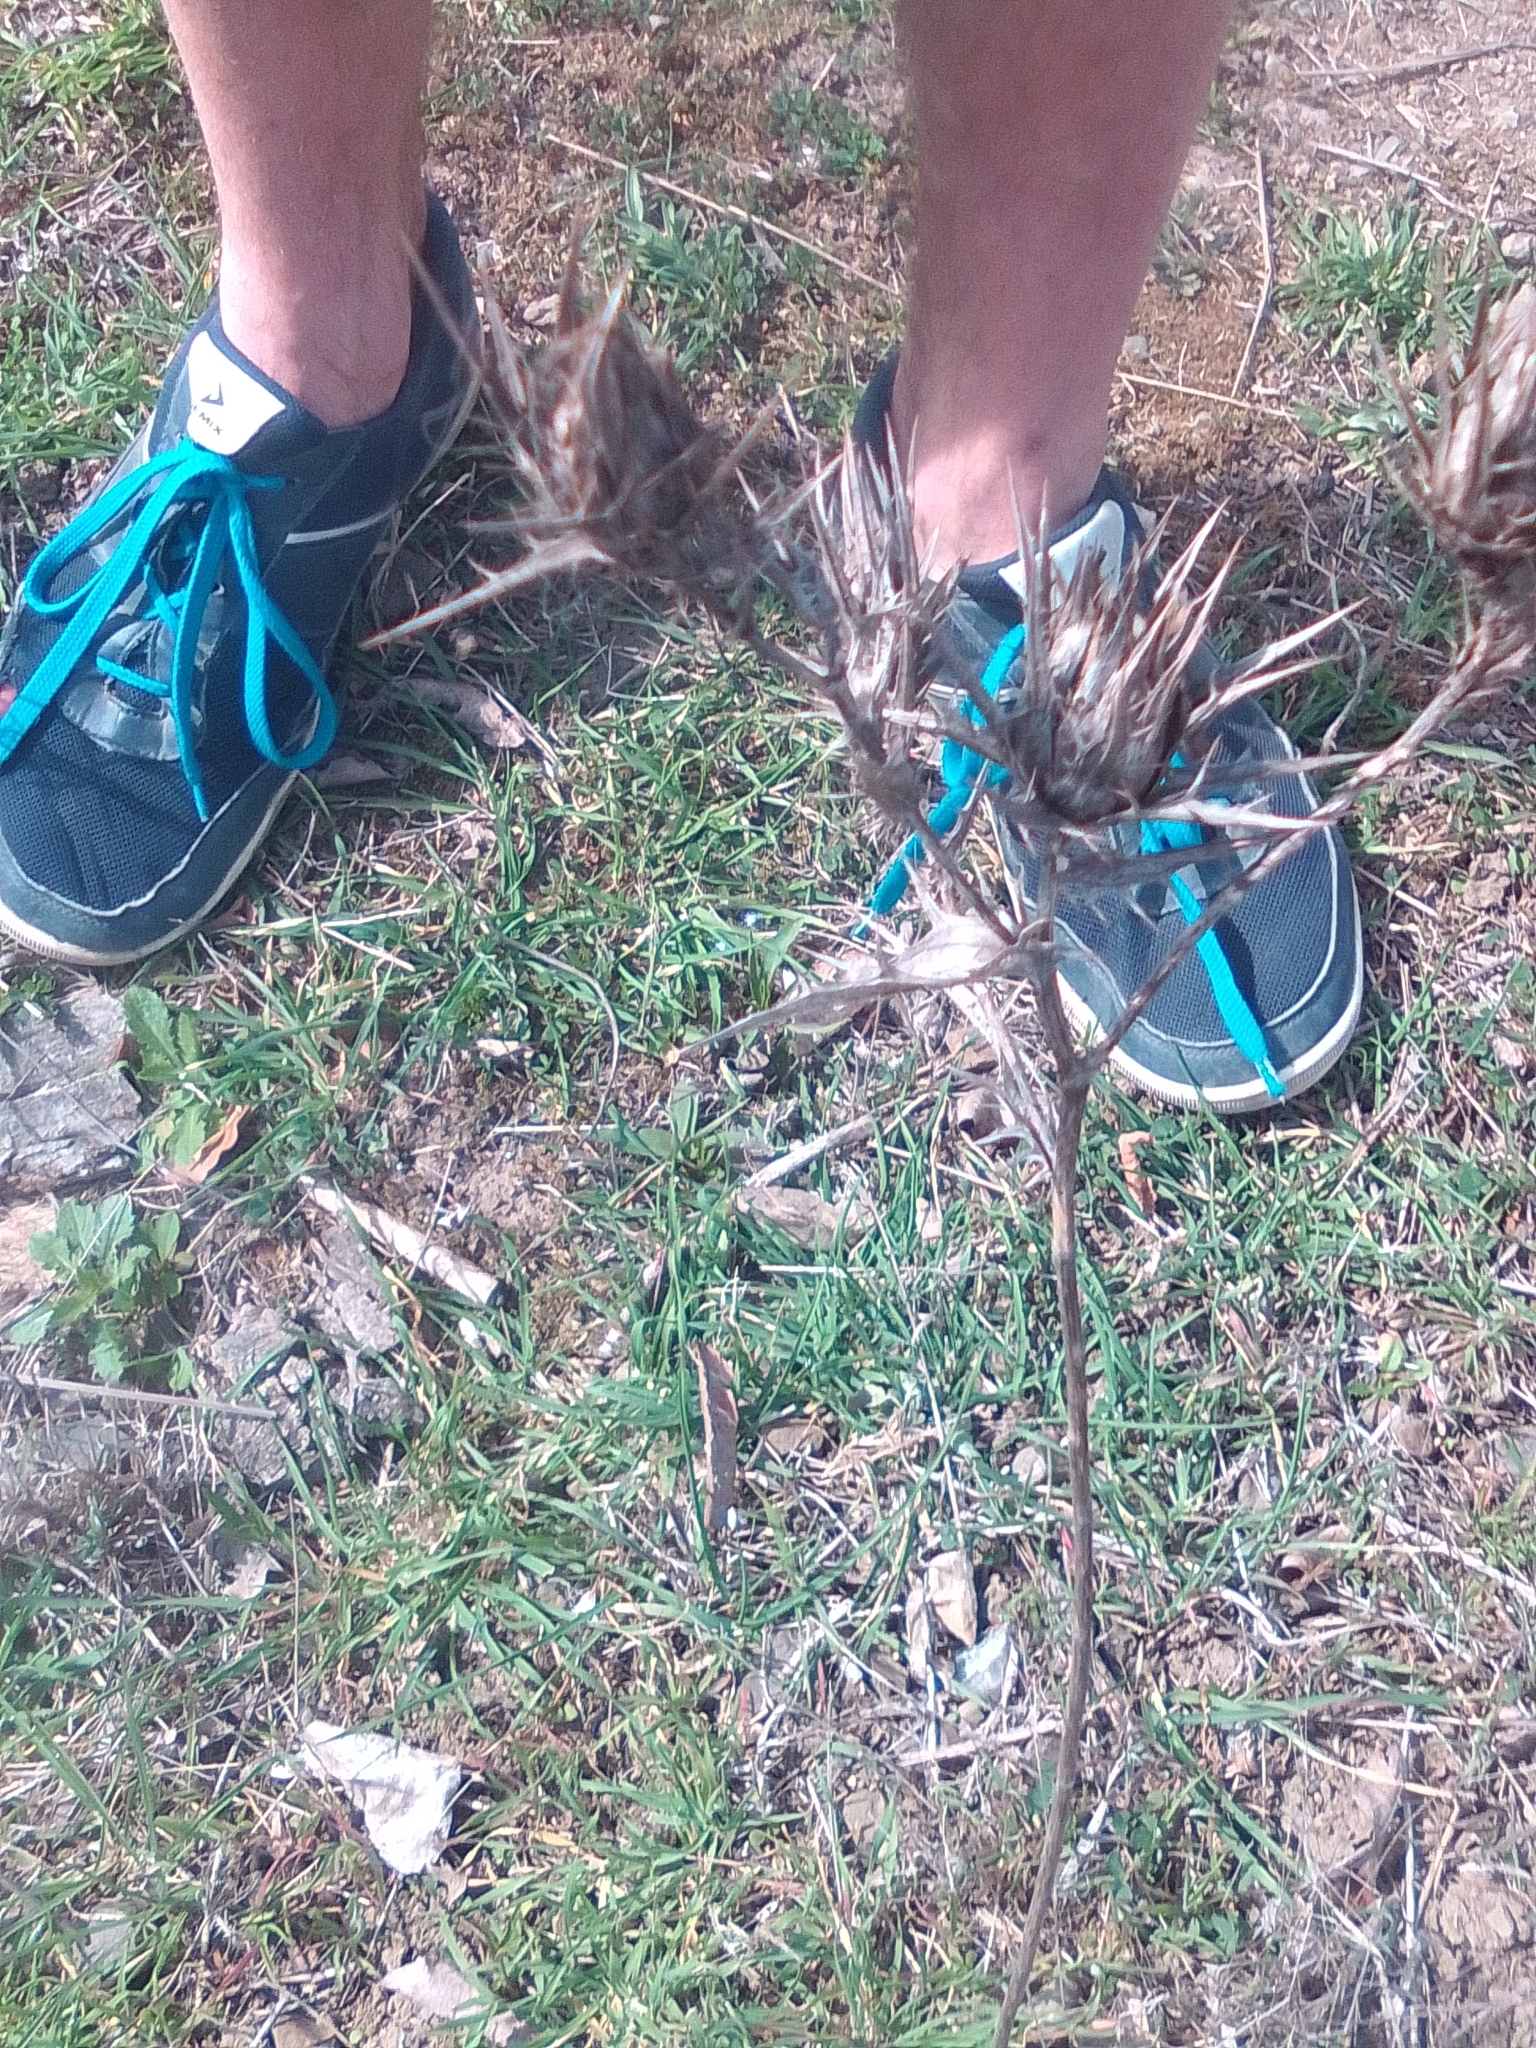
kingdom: Plantae
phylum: Tracheophyta
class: Magnoliopsida
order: Asterales
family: Asteraceae
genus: Carthamus
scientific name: Carthamus lanatus
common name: Downy safflower
